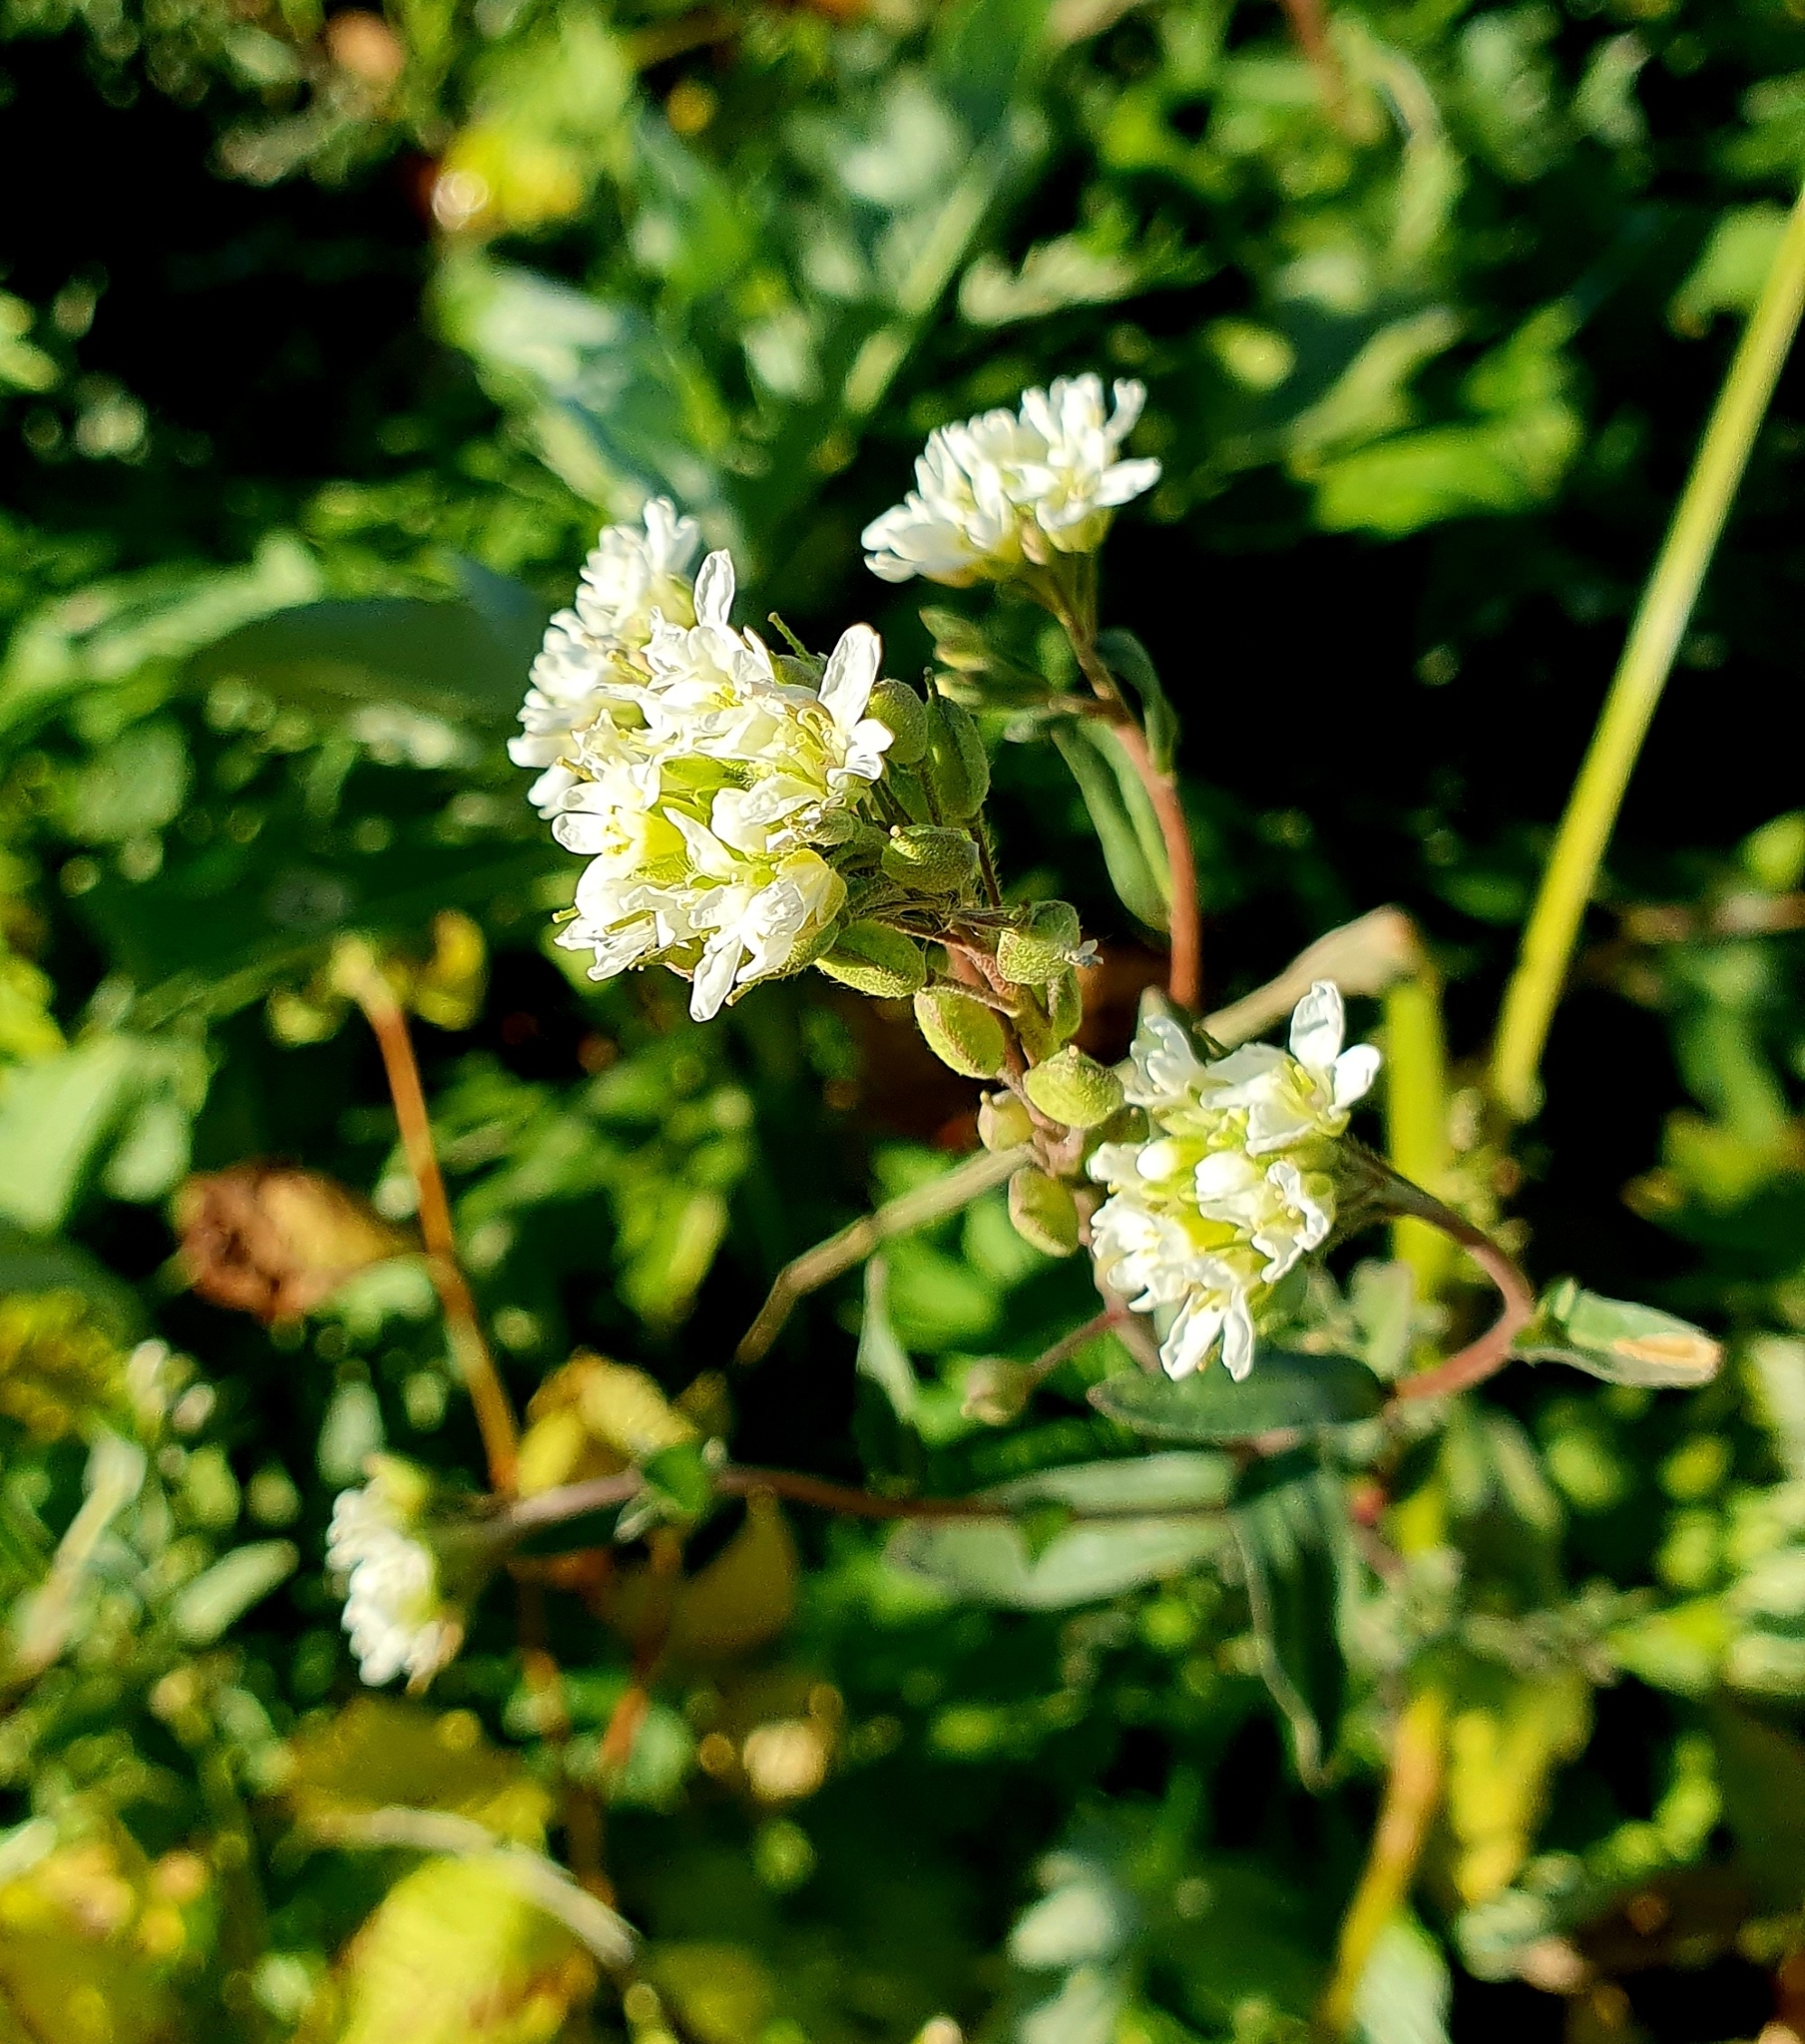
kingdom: Plantae
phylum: Tracheophyta
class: Magnoliopsida
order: Brassicales
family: Brassicaceae
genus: Berteroa
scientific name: Berteroa incana
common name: Hoary alison
